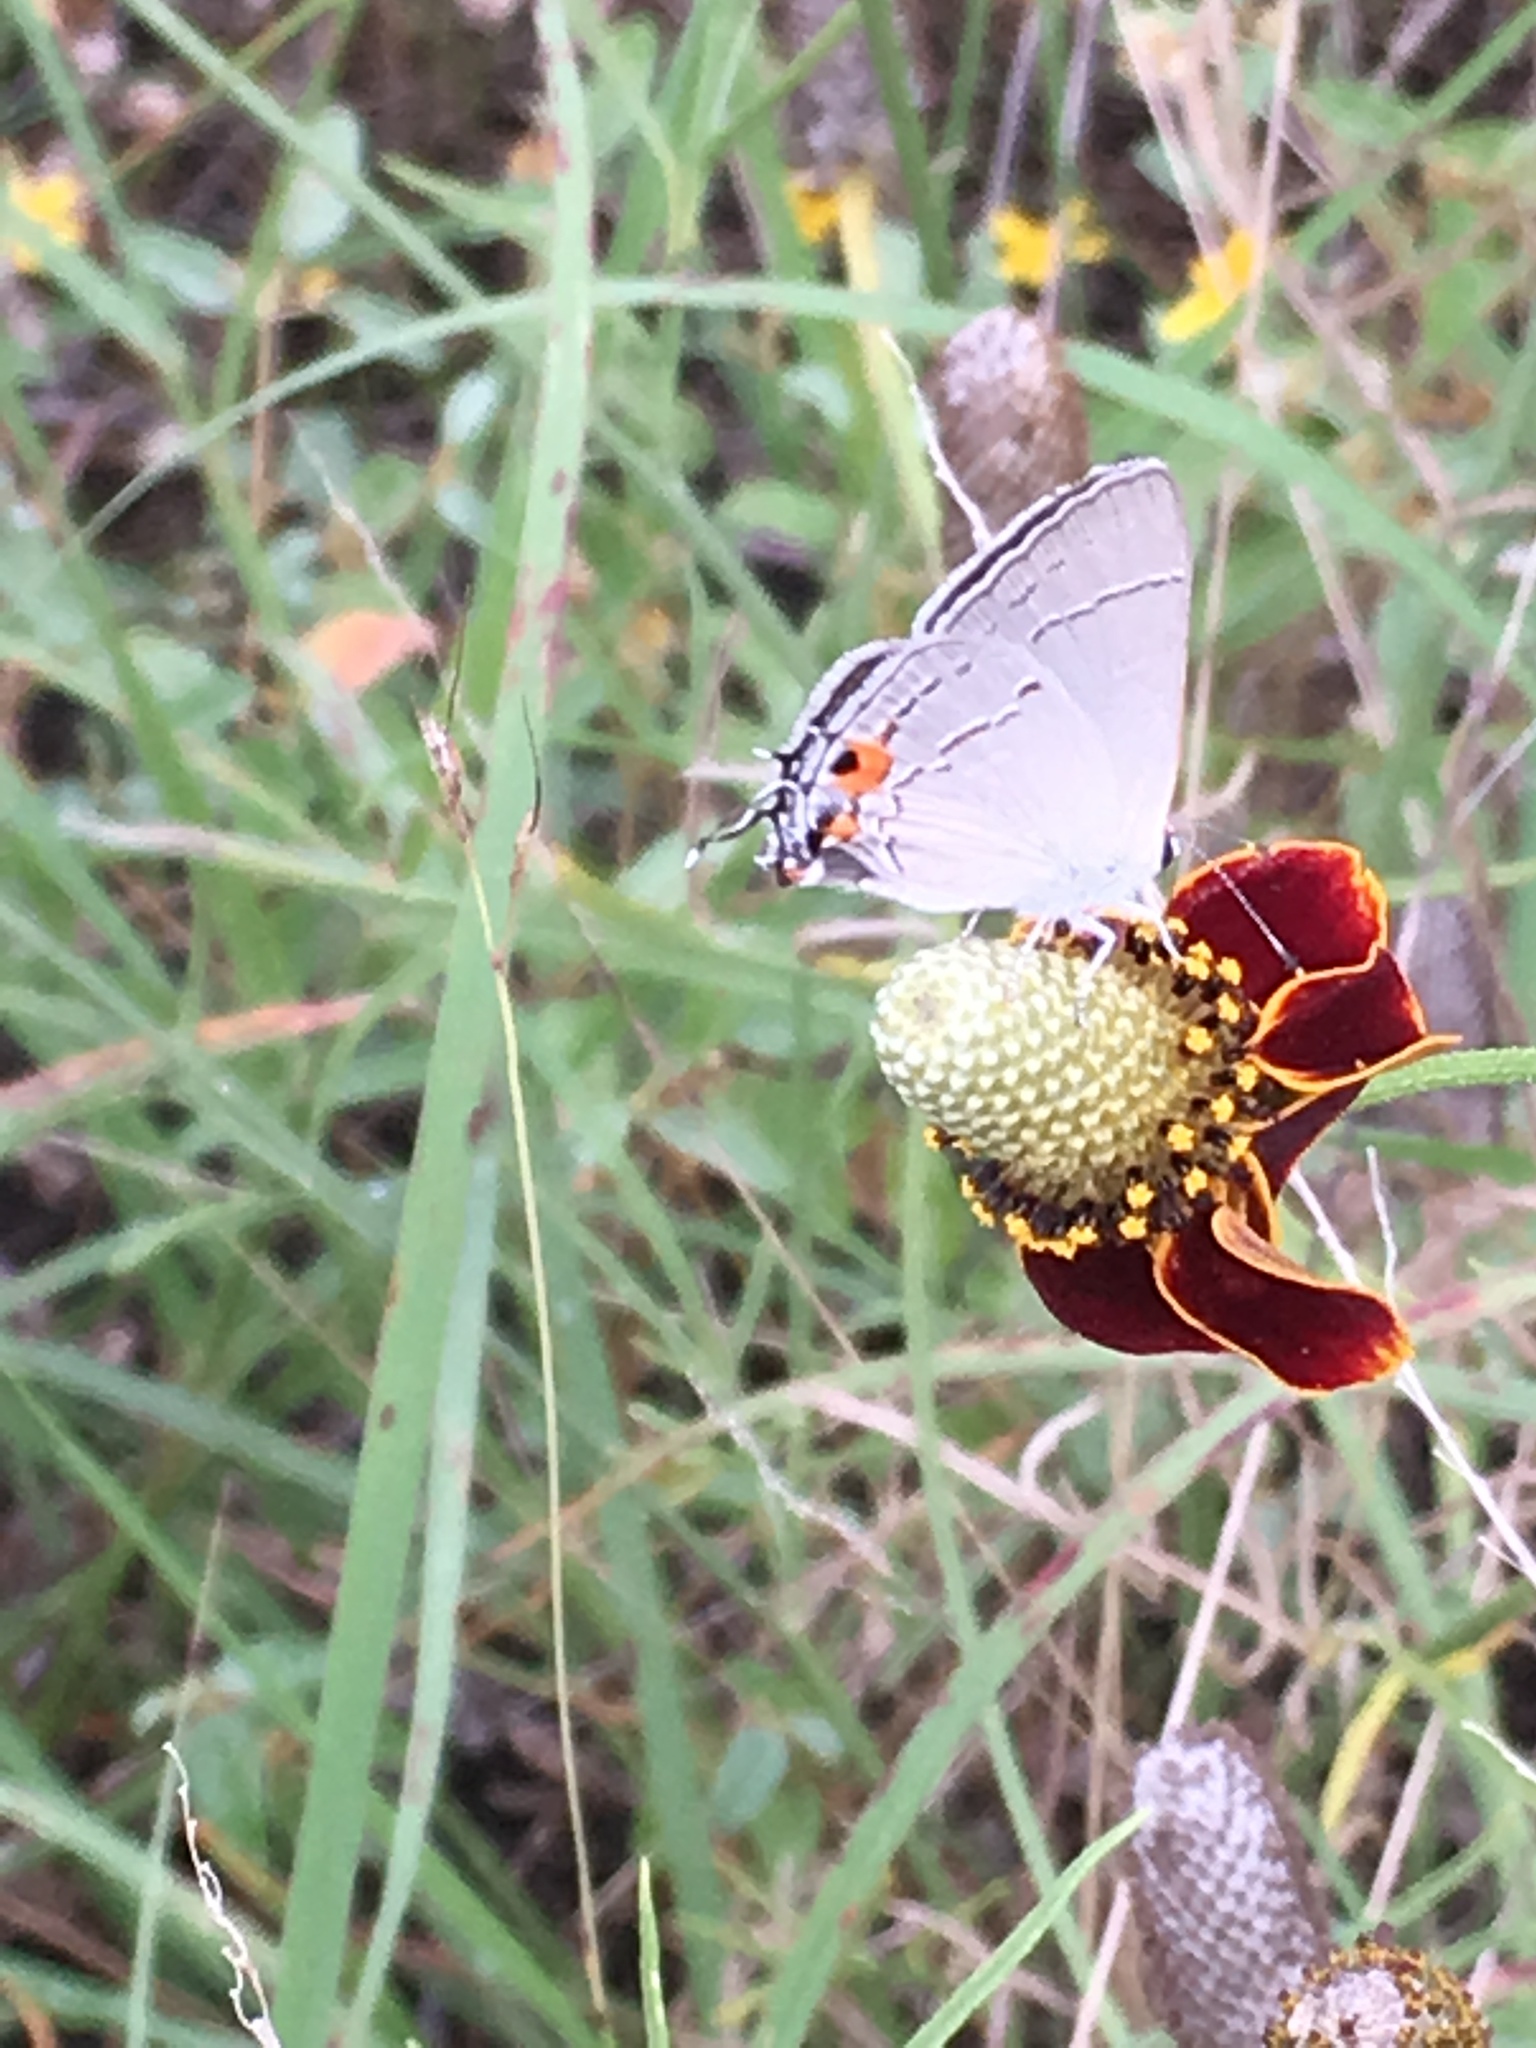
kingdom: Animalia
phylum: Arthropoda
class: Insecta
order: Lepidoptera
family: Lycaenidae
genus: Strymon
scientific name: Strymon melinus
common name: Gray hairstreak
